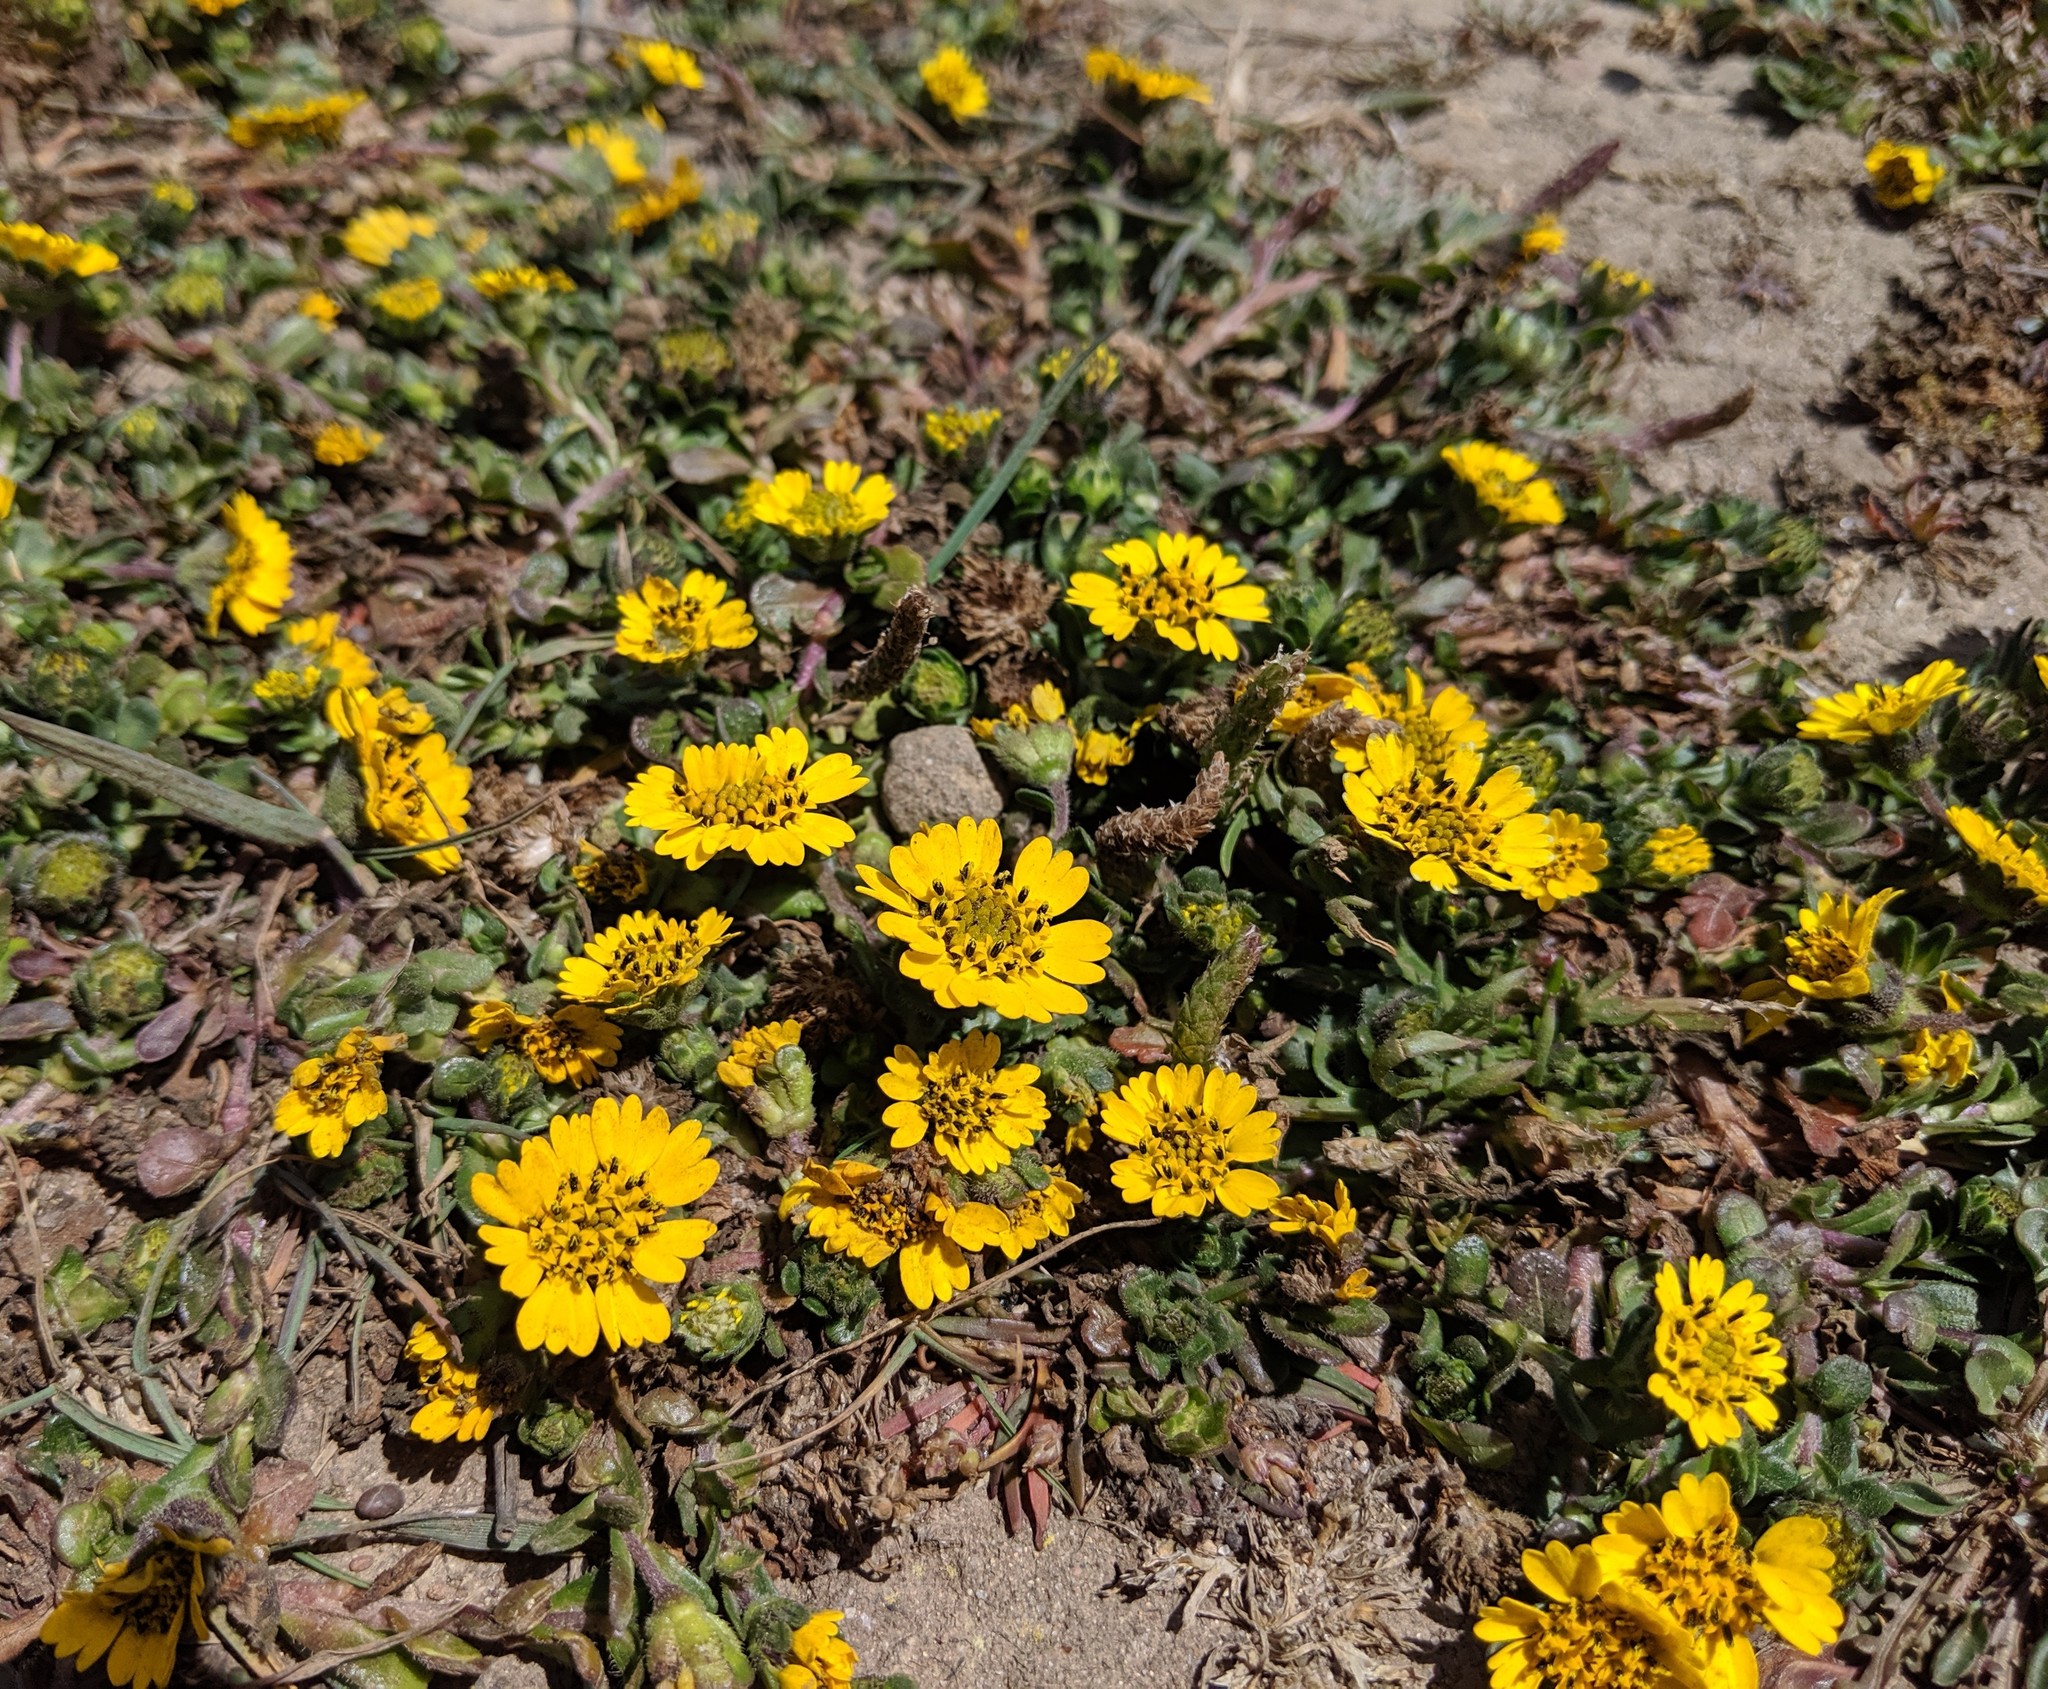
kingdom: Plantae
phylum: Tracheophyta
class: Magnoliopsida
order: Asterales
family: Asteraceae
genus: Layia
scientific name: Layia platyglossa
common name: Tidy-tips
